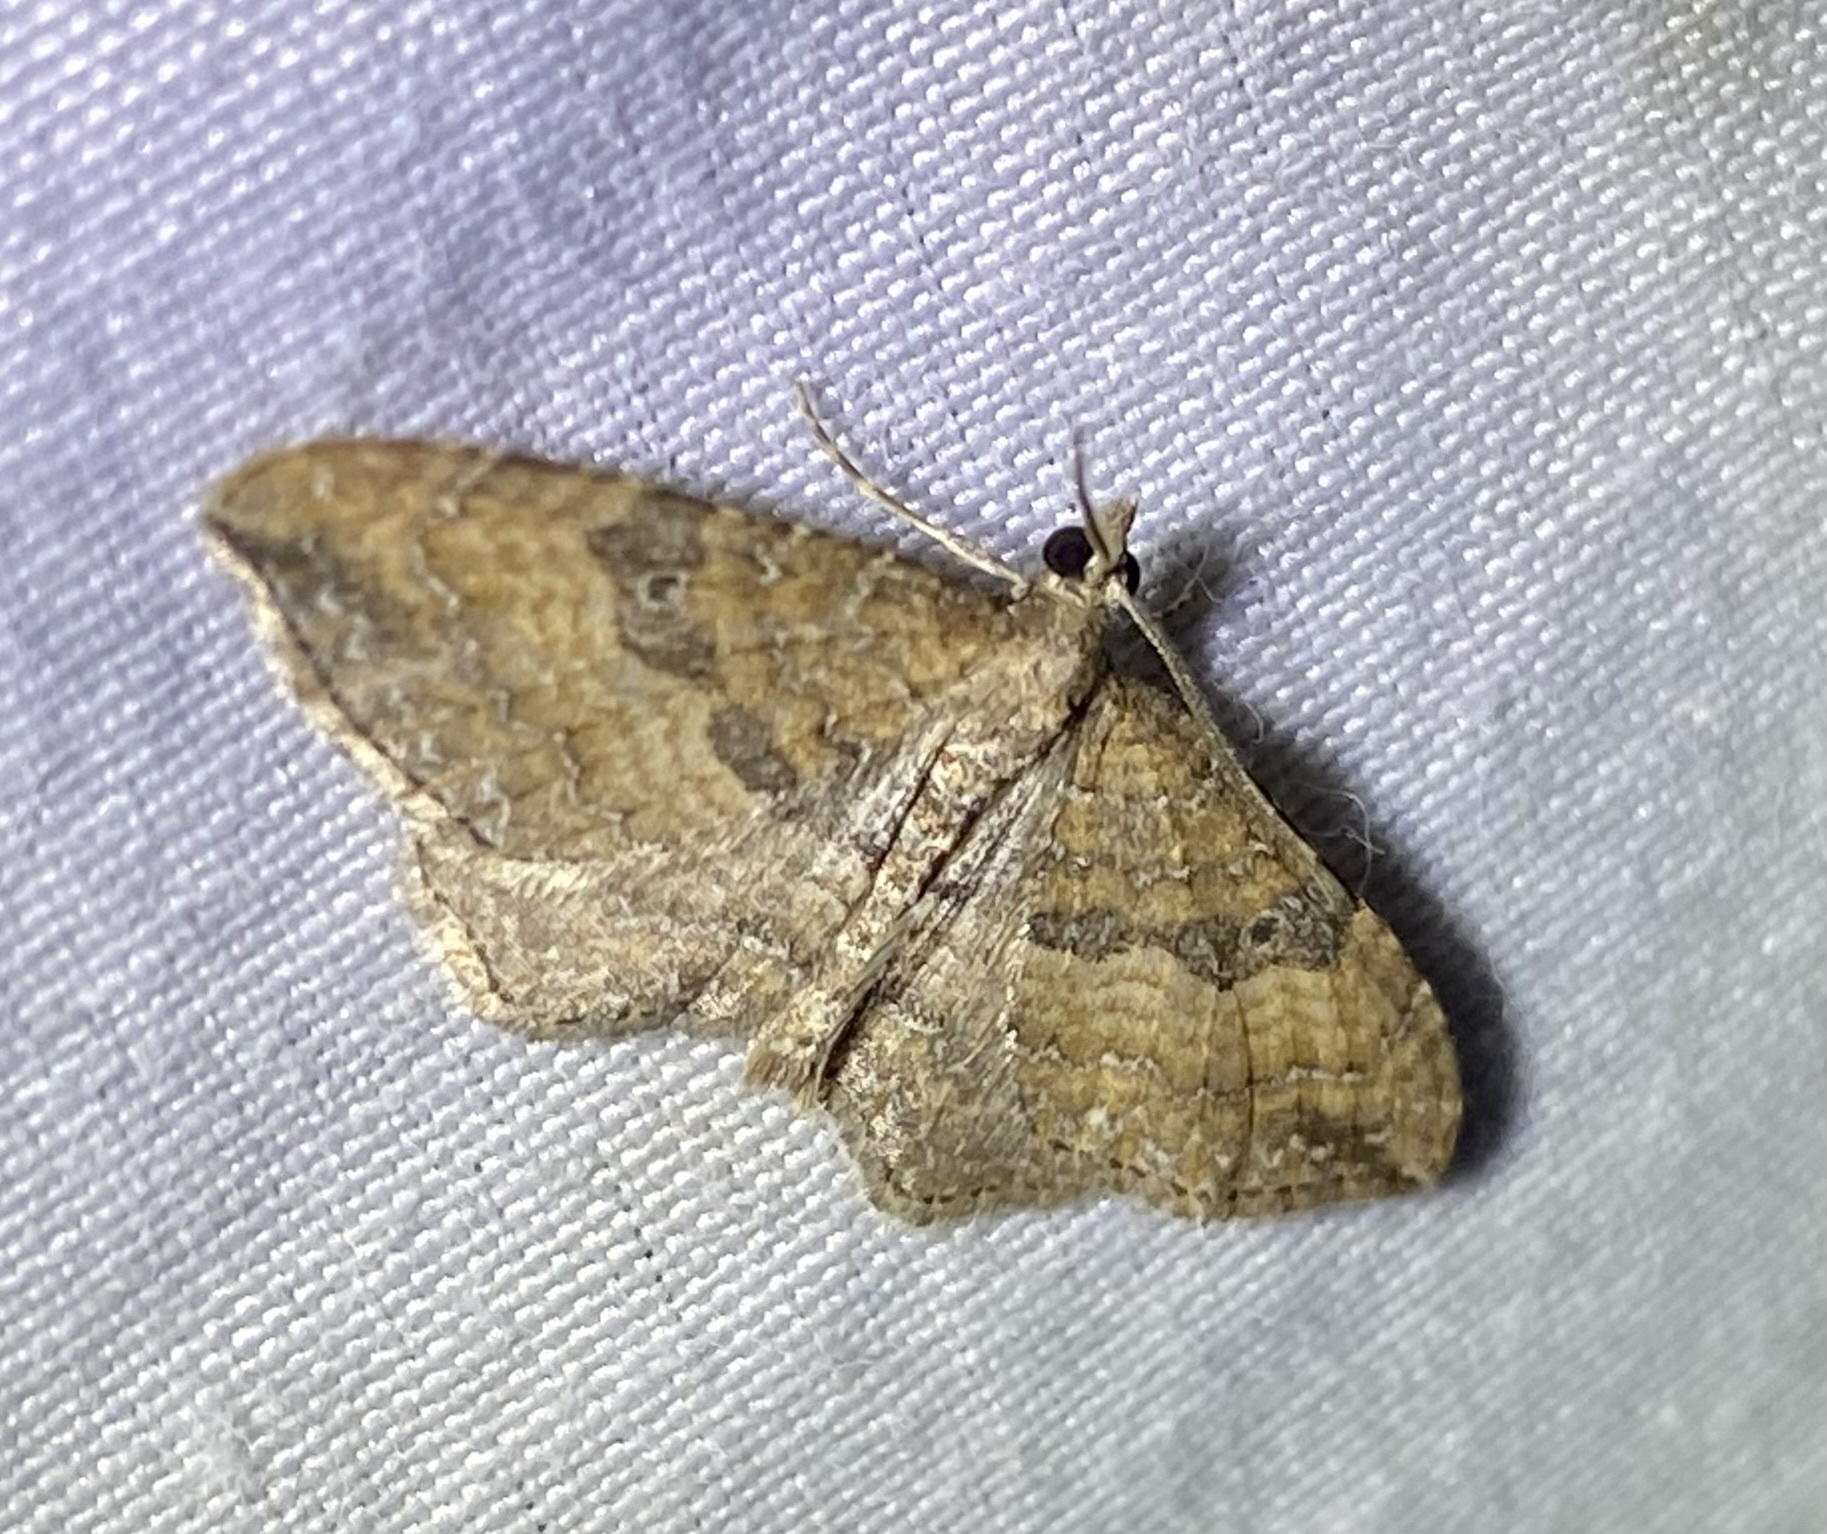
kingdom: Animalia
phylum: Arthropoda
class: Insecta
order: Lepidoptera
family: Geometridae
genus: Orthonama
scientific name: Orthonama obstipata
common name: The gem
